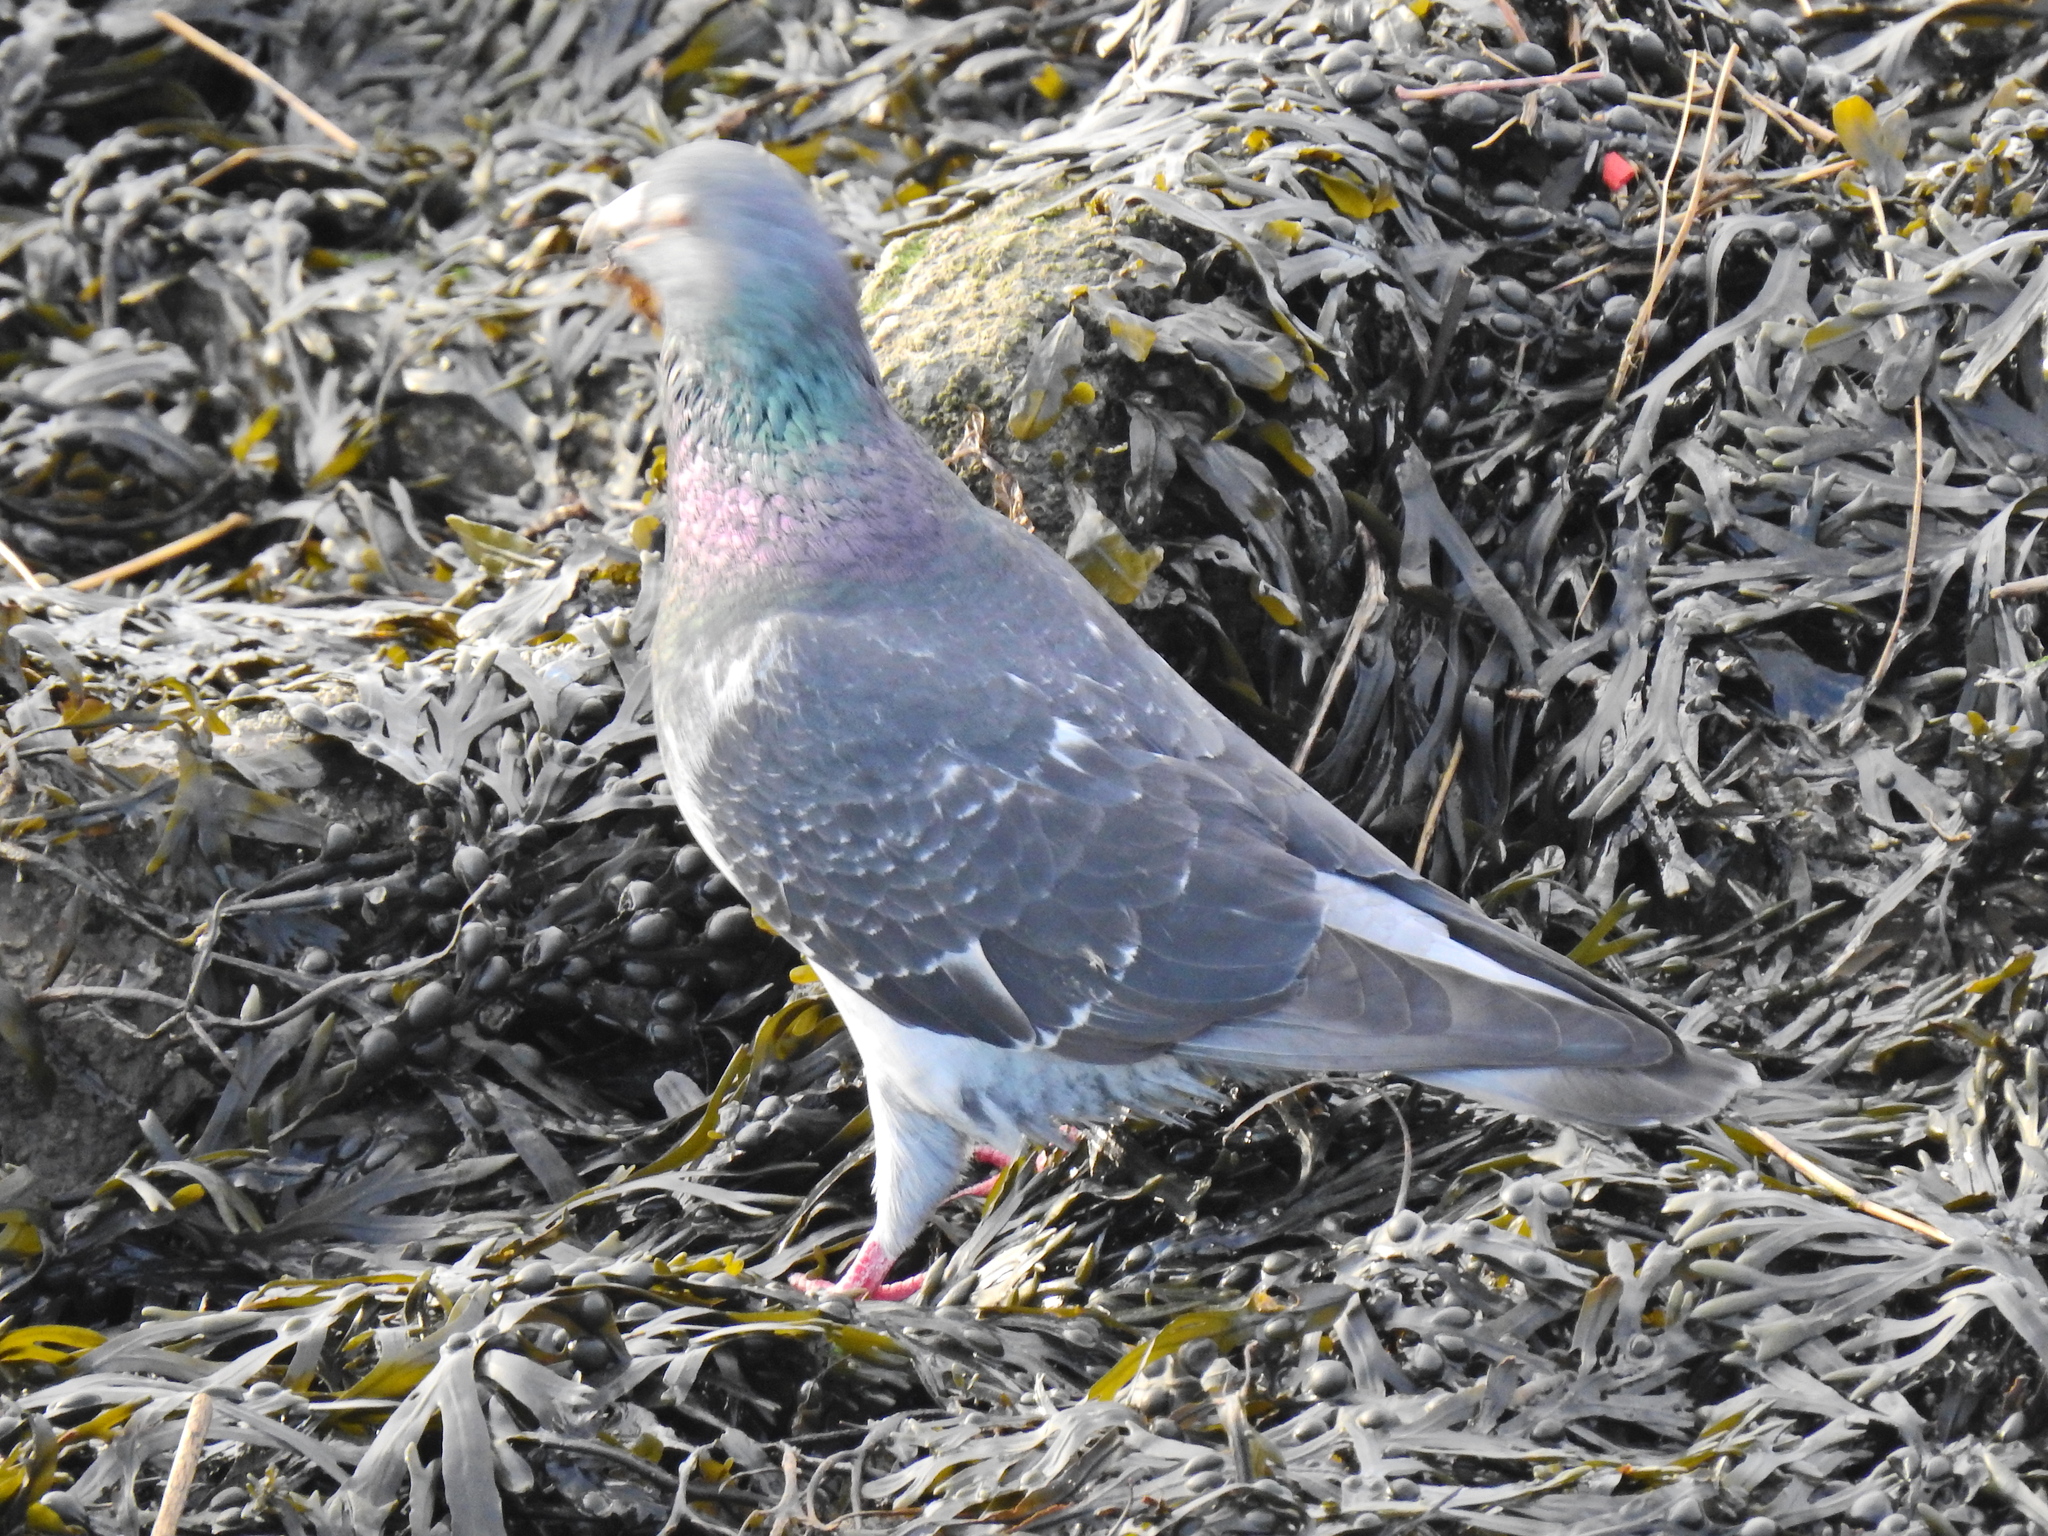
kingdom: Animalia
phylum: Chordata
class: Aves
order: Columbiformes
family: Columbidae
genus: Columba
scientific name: Columba livia
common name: Rock pigeon
